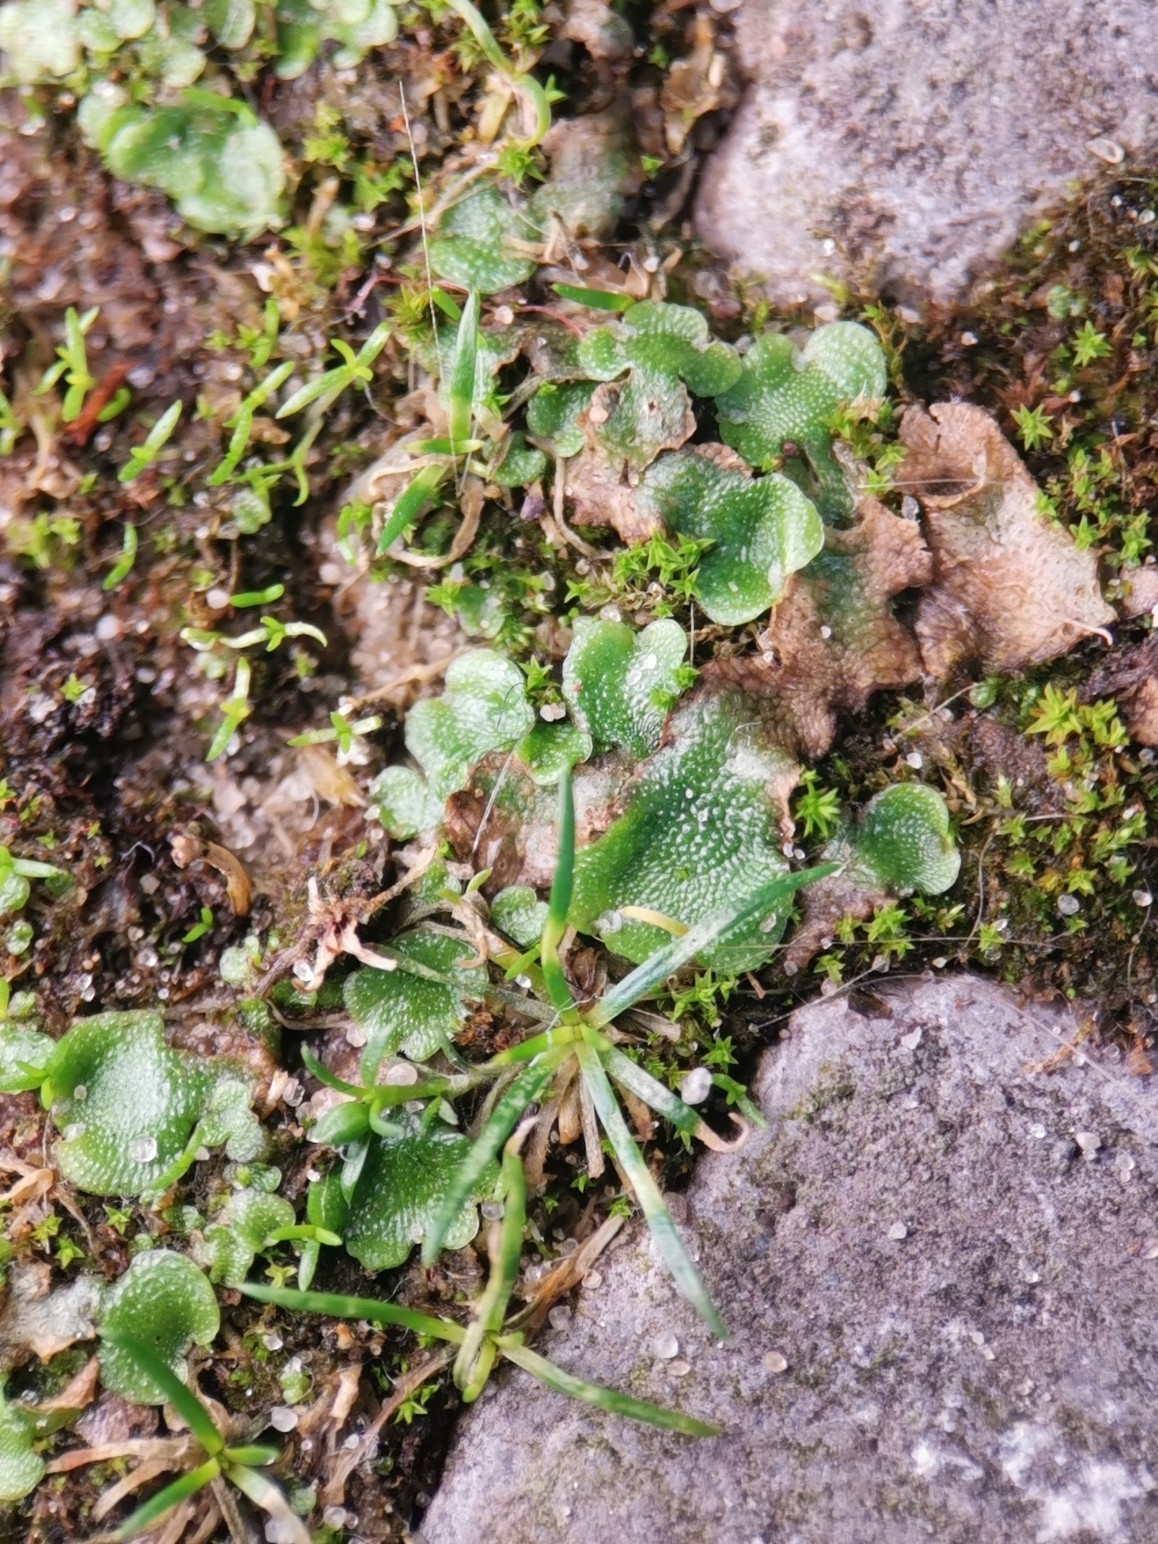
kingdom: Plantae
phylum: Marchantiophyta
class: Marchantiopsida
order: Lunulariales
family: Lunulariaceae
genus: Lunularia
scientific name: Lunularia cruciata
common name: Crescent-cup liverwort
